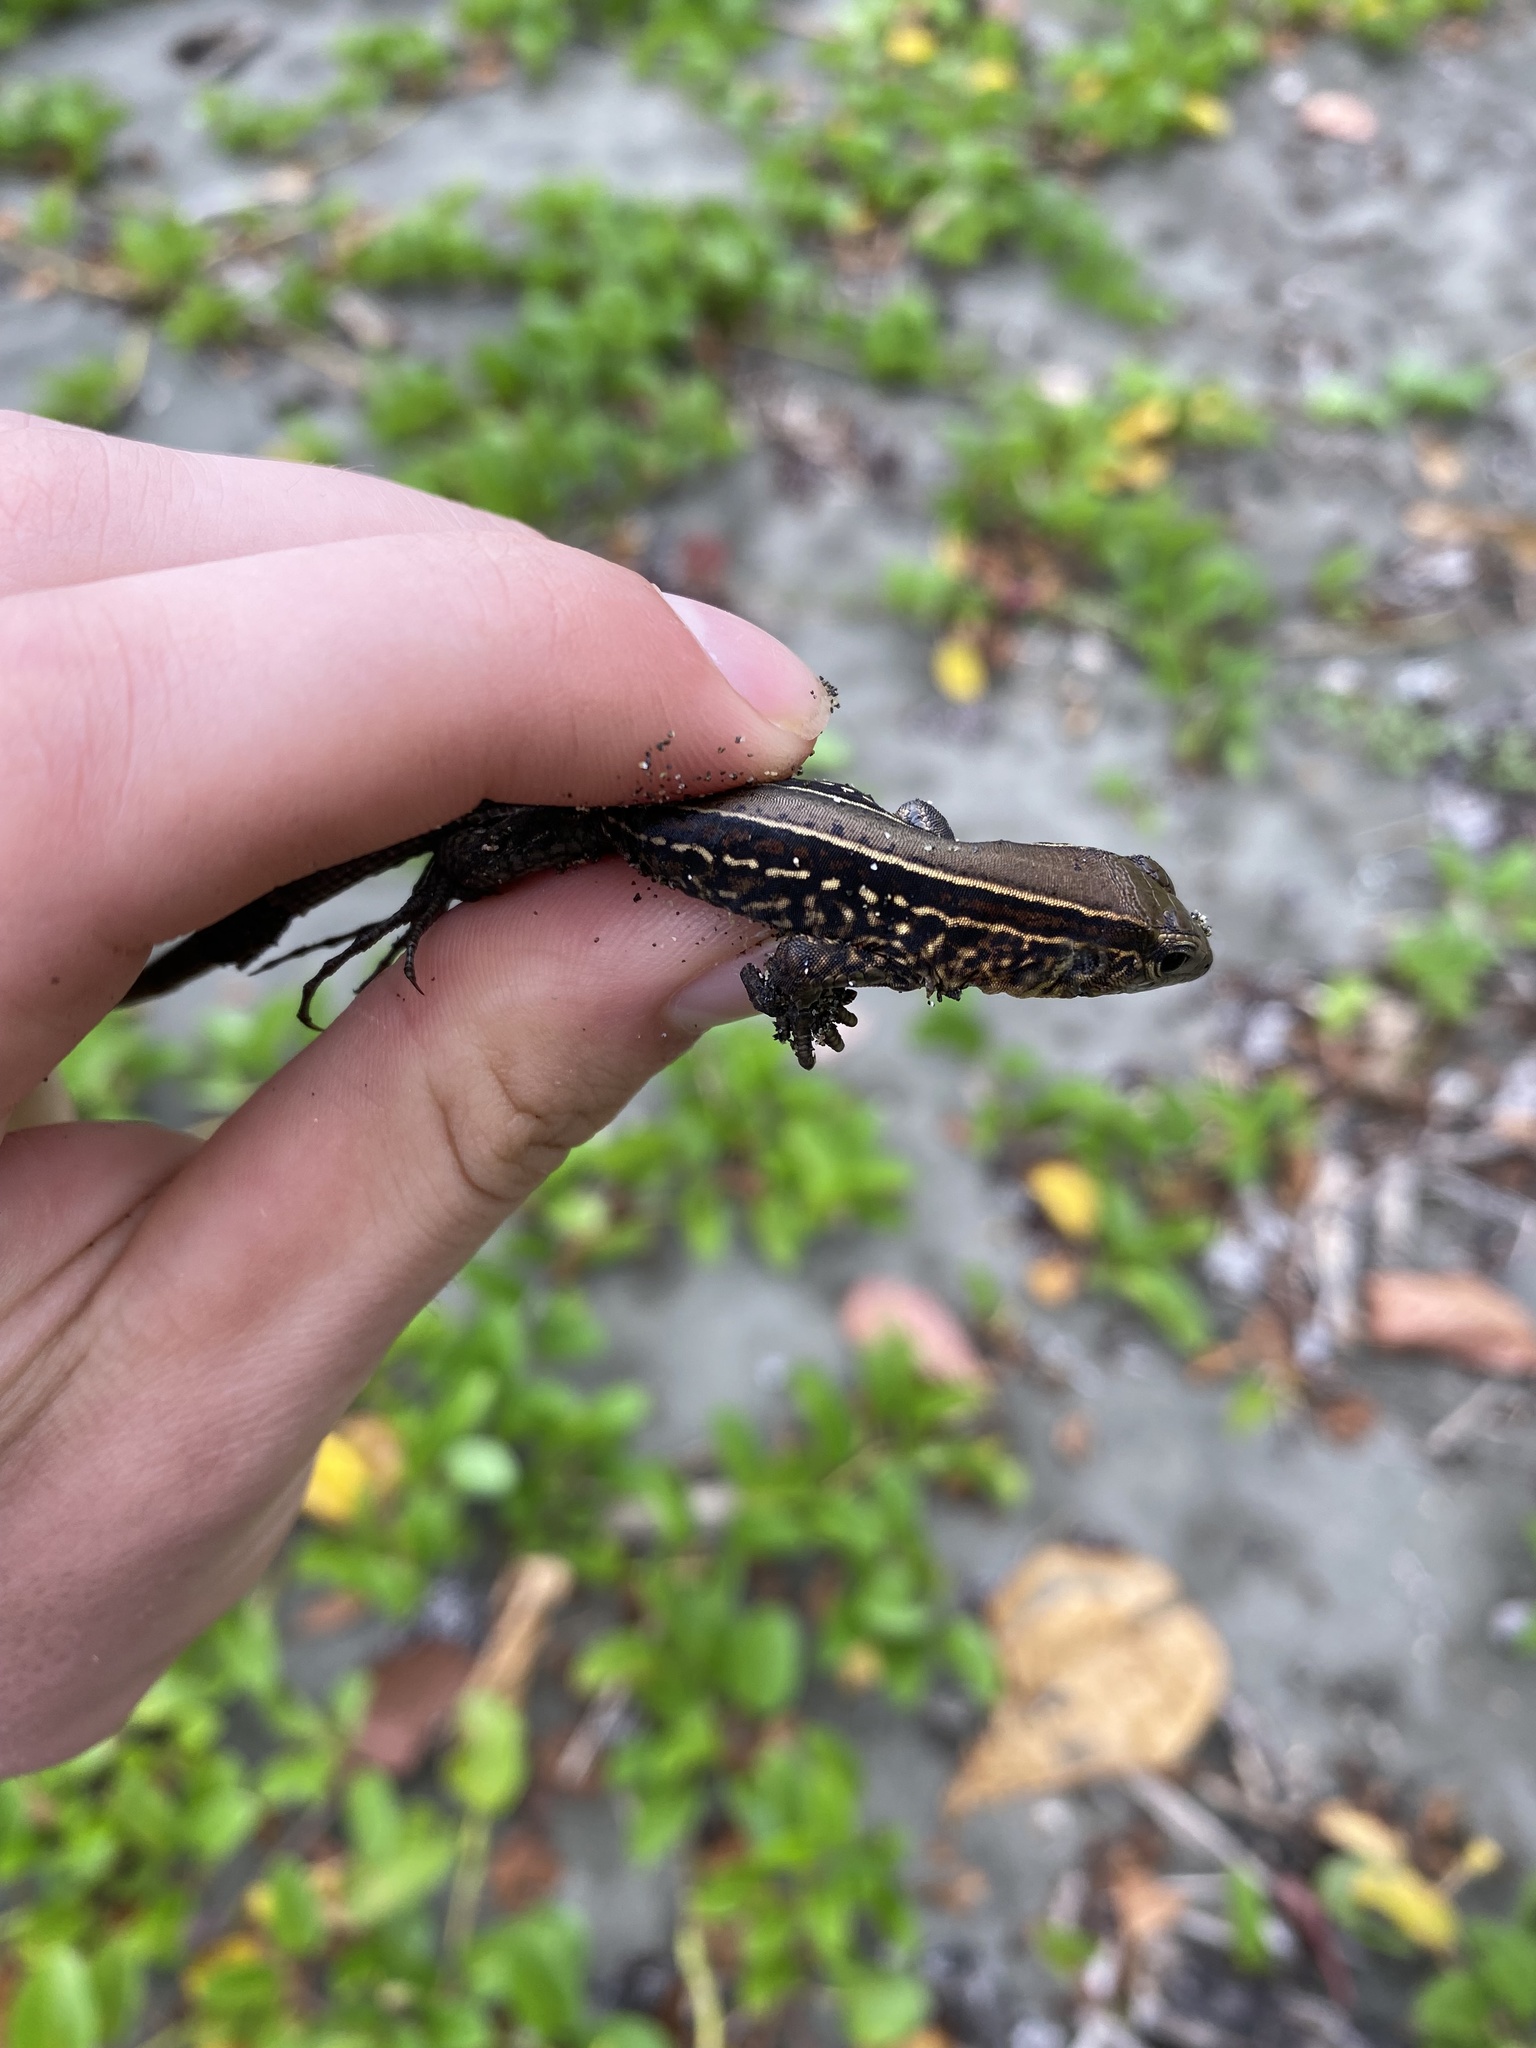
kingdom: Animalia
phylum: Chordata
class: Squamata
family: Teiidae
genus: Holcosus
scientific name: Holcosus quadrilineatus
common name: Four-lined ameiva
